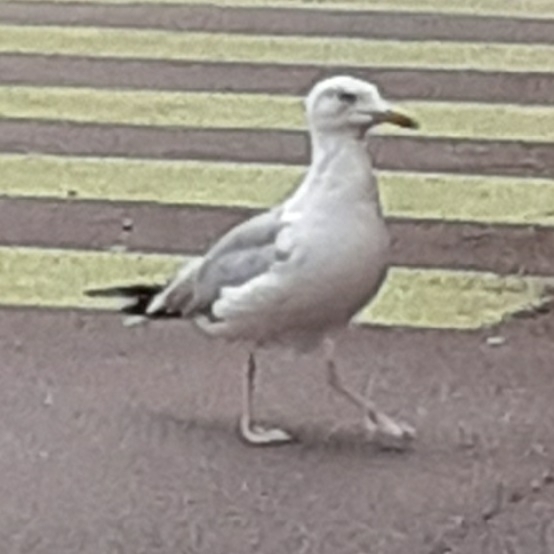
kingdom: Animalia
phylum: Chordata
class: Aves
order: Charadriiformes
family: Laridae
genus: Larus
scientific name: Larus argentatus
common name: Herring gull
